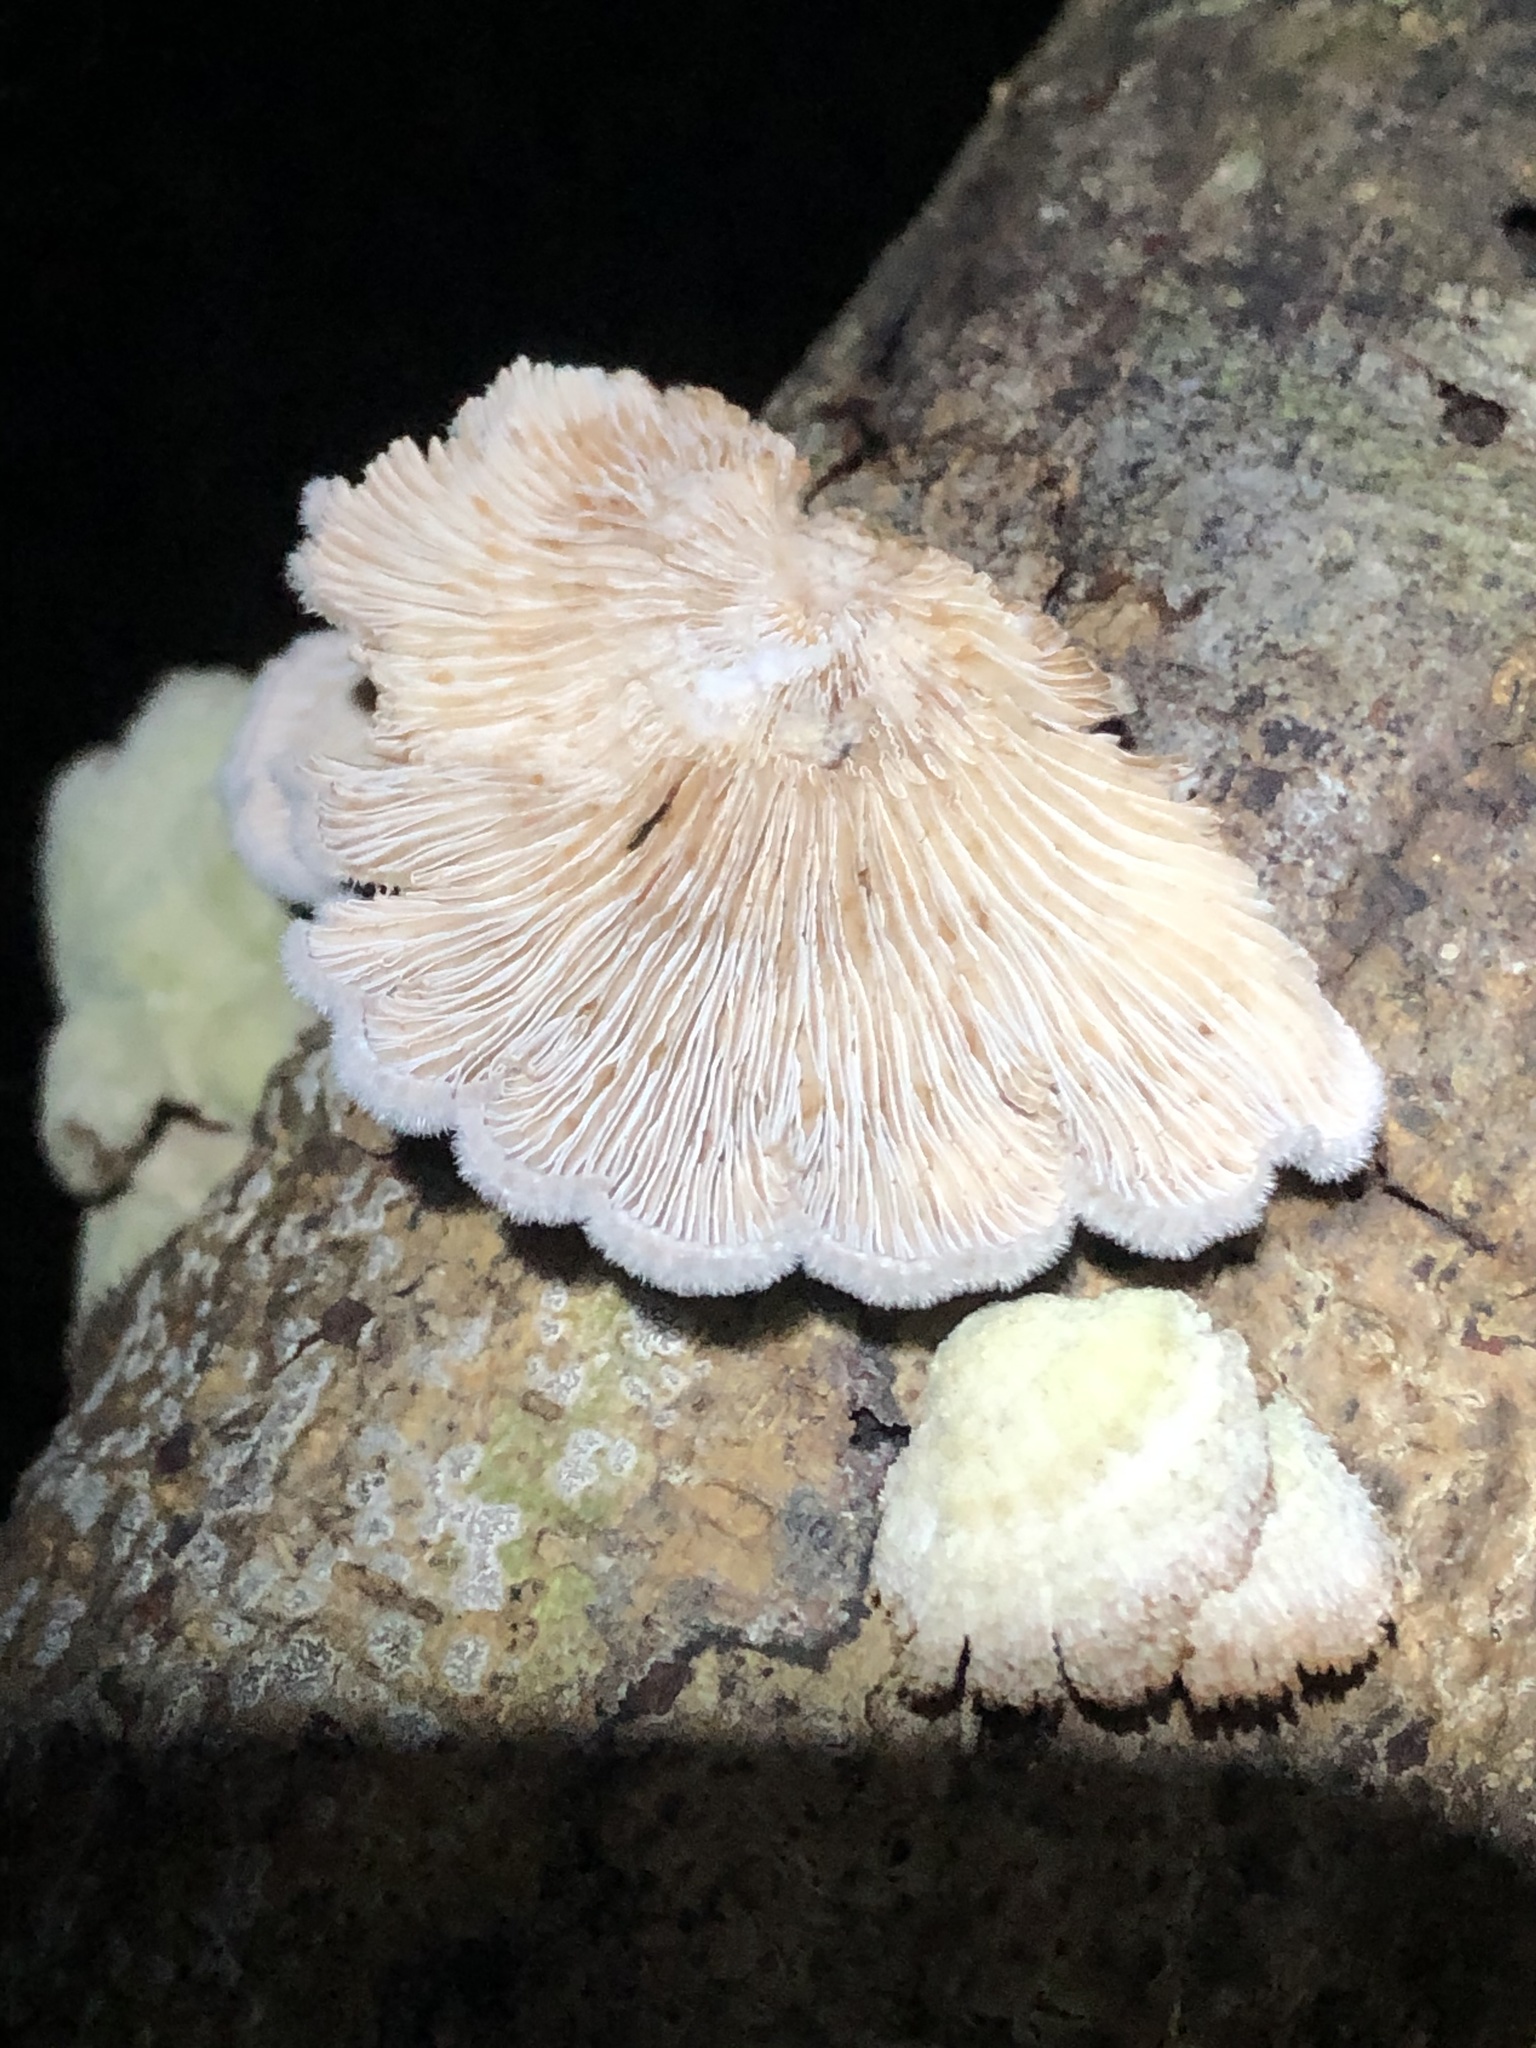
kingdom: Fungi
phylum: Basidiomycota
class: Agaricomycetes
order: Agaricales
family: Schizophyllaceae
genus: Schizophyllum
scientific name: Schizophyllum commune
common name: Common porecrust
